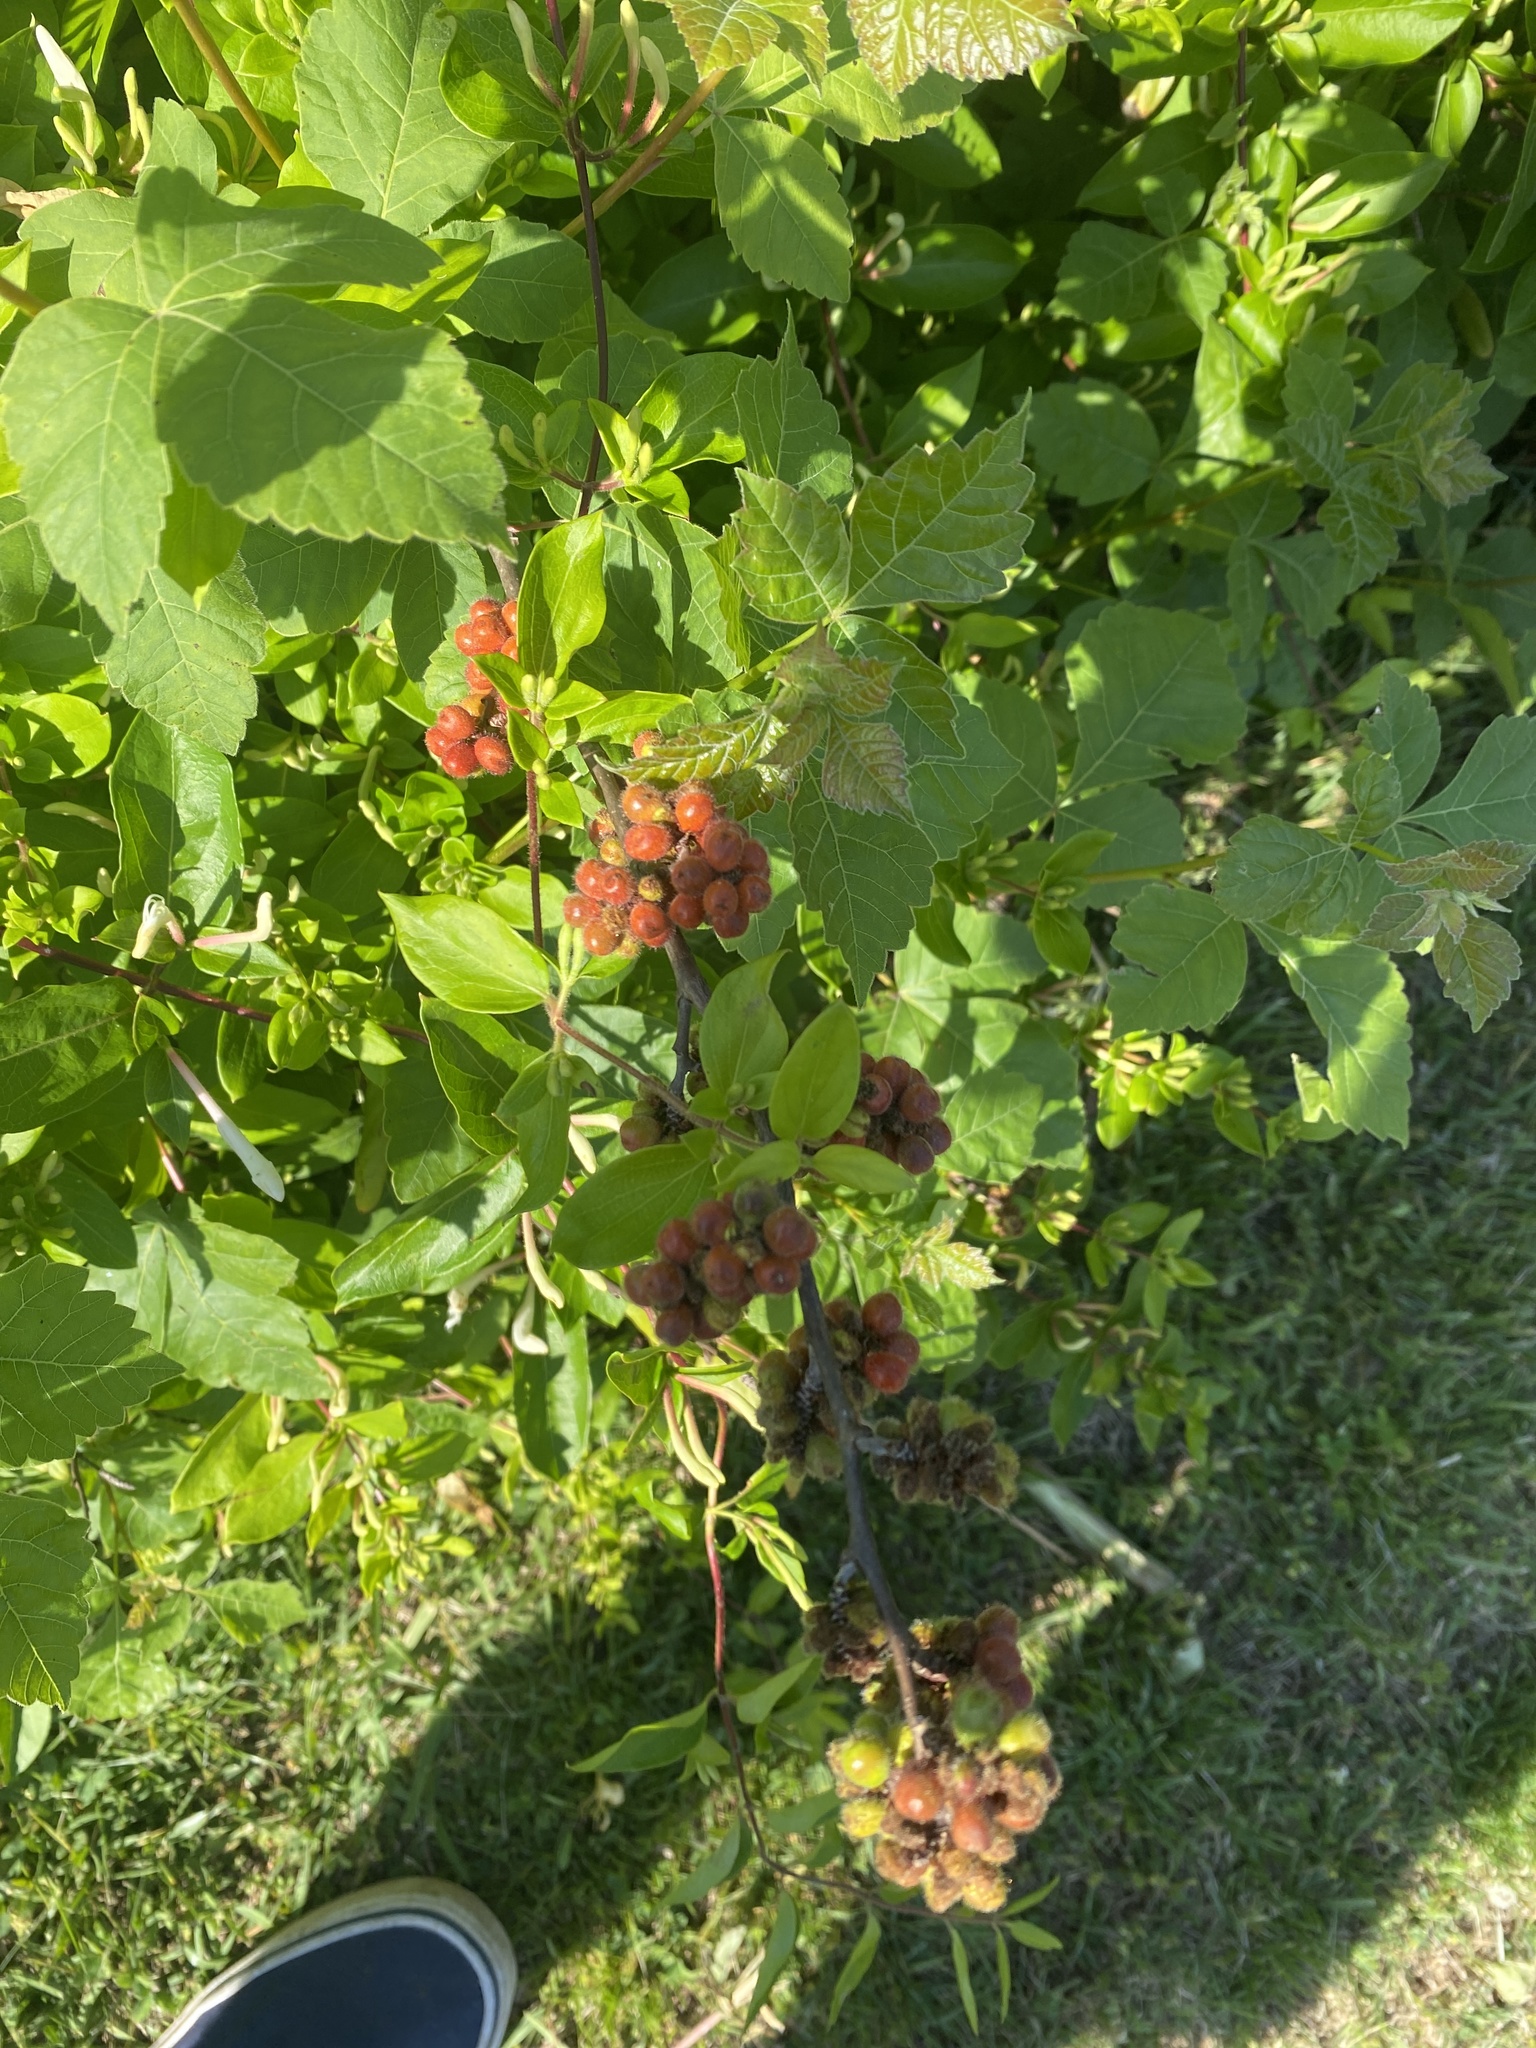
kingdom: Plantae
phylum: Tracheophyta
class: Magnoliopsida
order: Sapindales
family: Anacardiaceae
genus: Rhus
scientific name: Rhus aromatica
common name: Aromatic sumac
